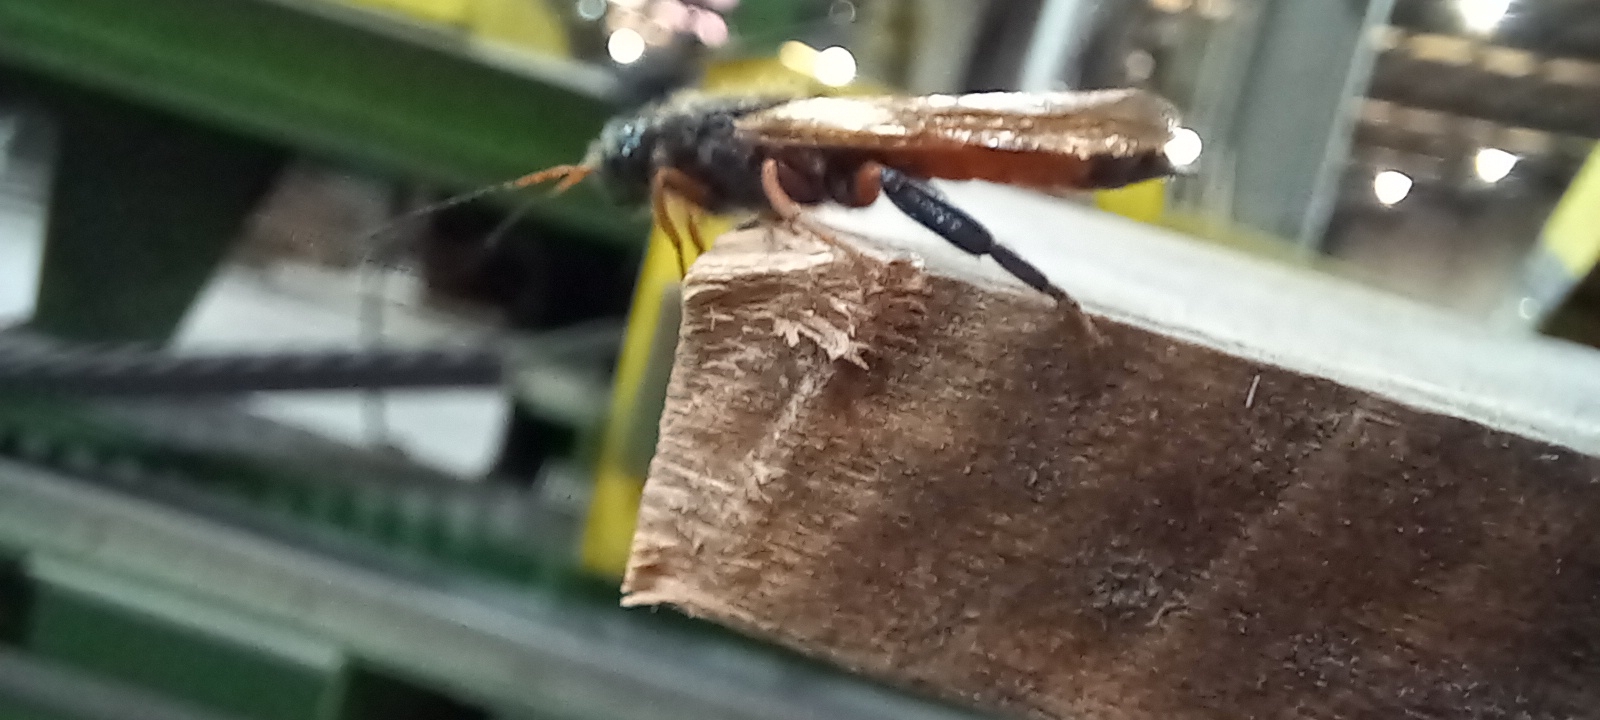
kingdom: Animalia
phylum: Arthropoda
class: Insecta
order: Hymenoptera
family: Siricidae
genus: Sirex
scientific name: Sirex juvencus
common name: Blue horntail
